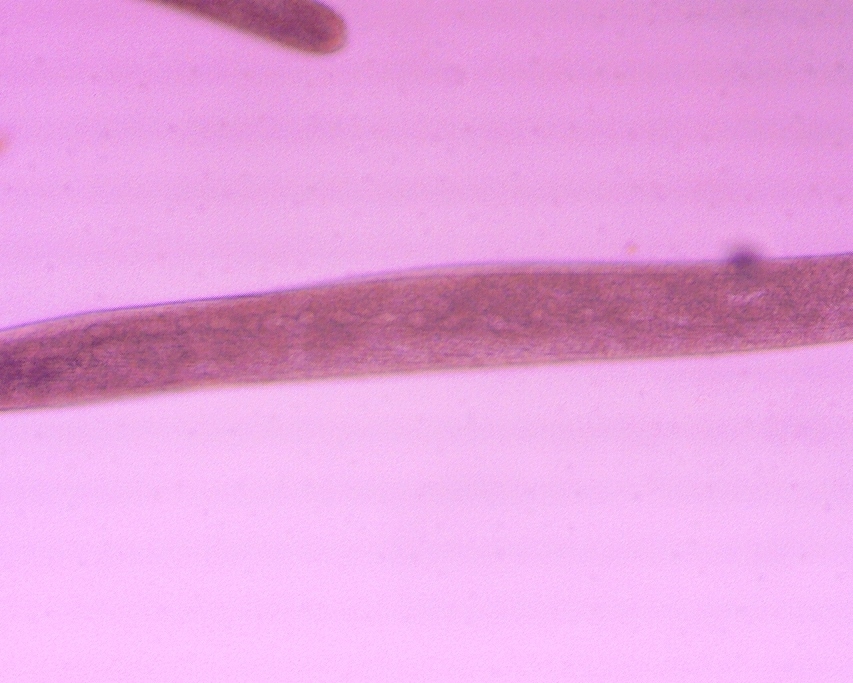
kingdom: Chromista
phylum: Ciliophora
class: Heterotrichea
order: Heterotrichida
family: Spirostomidae
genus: Spirostomum
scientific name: Spirostomum ambiguum
